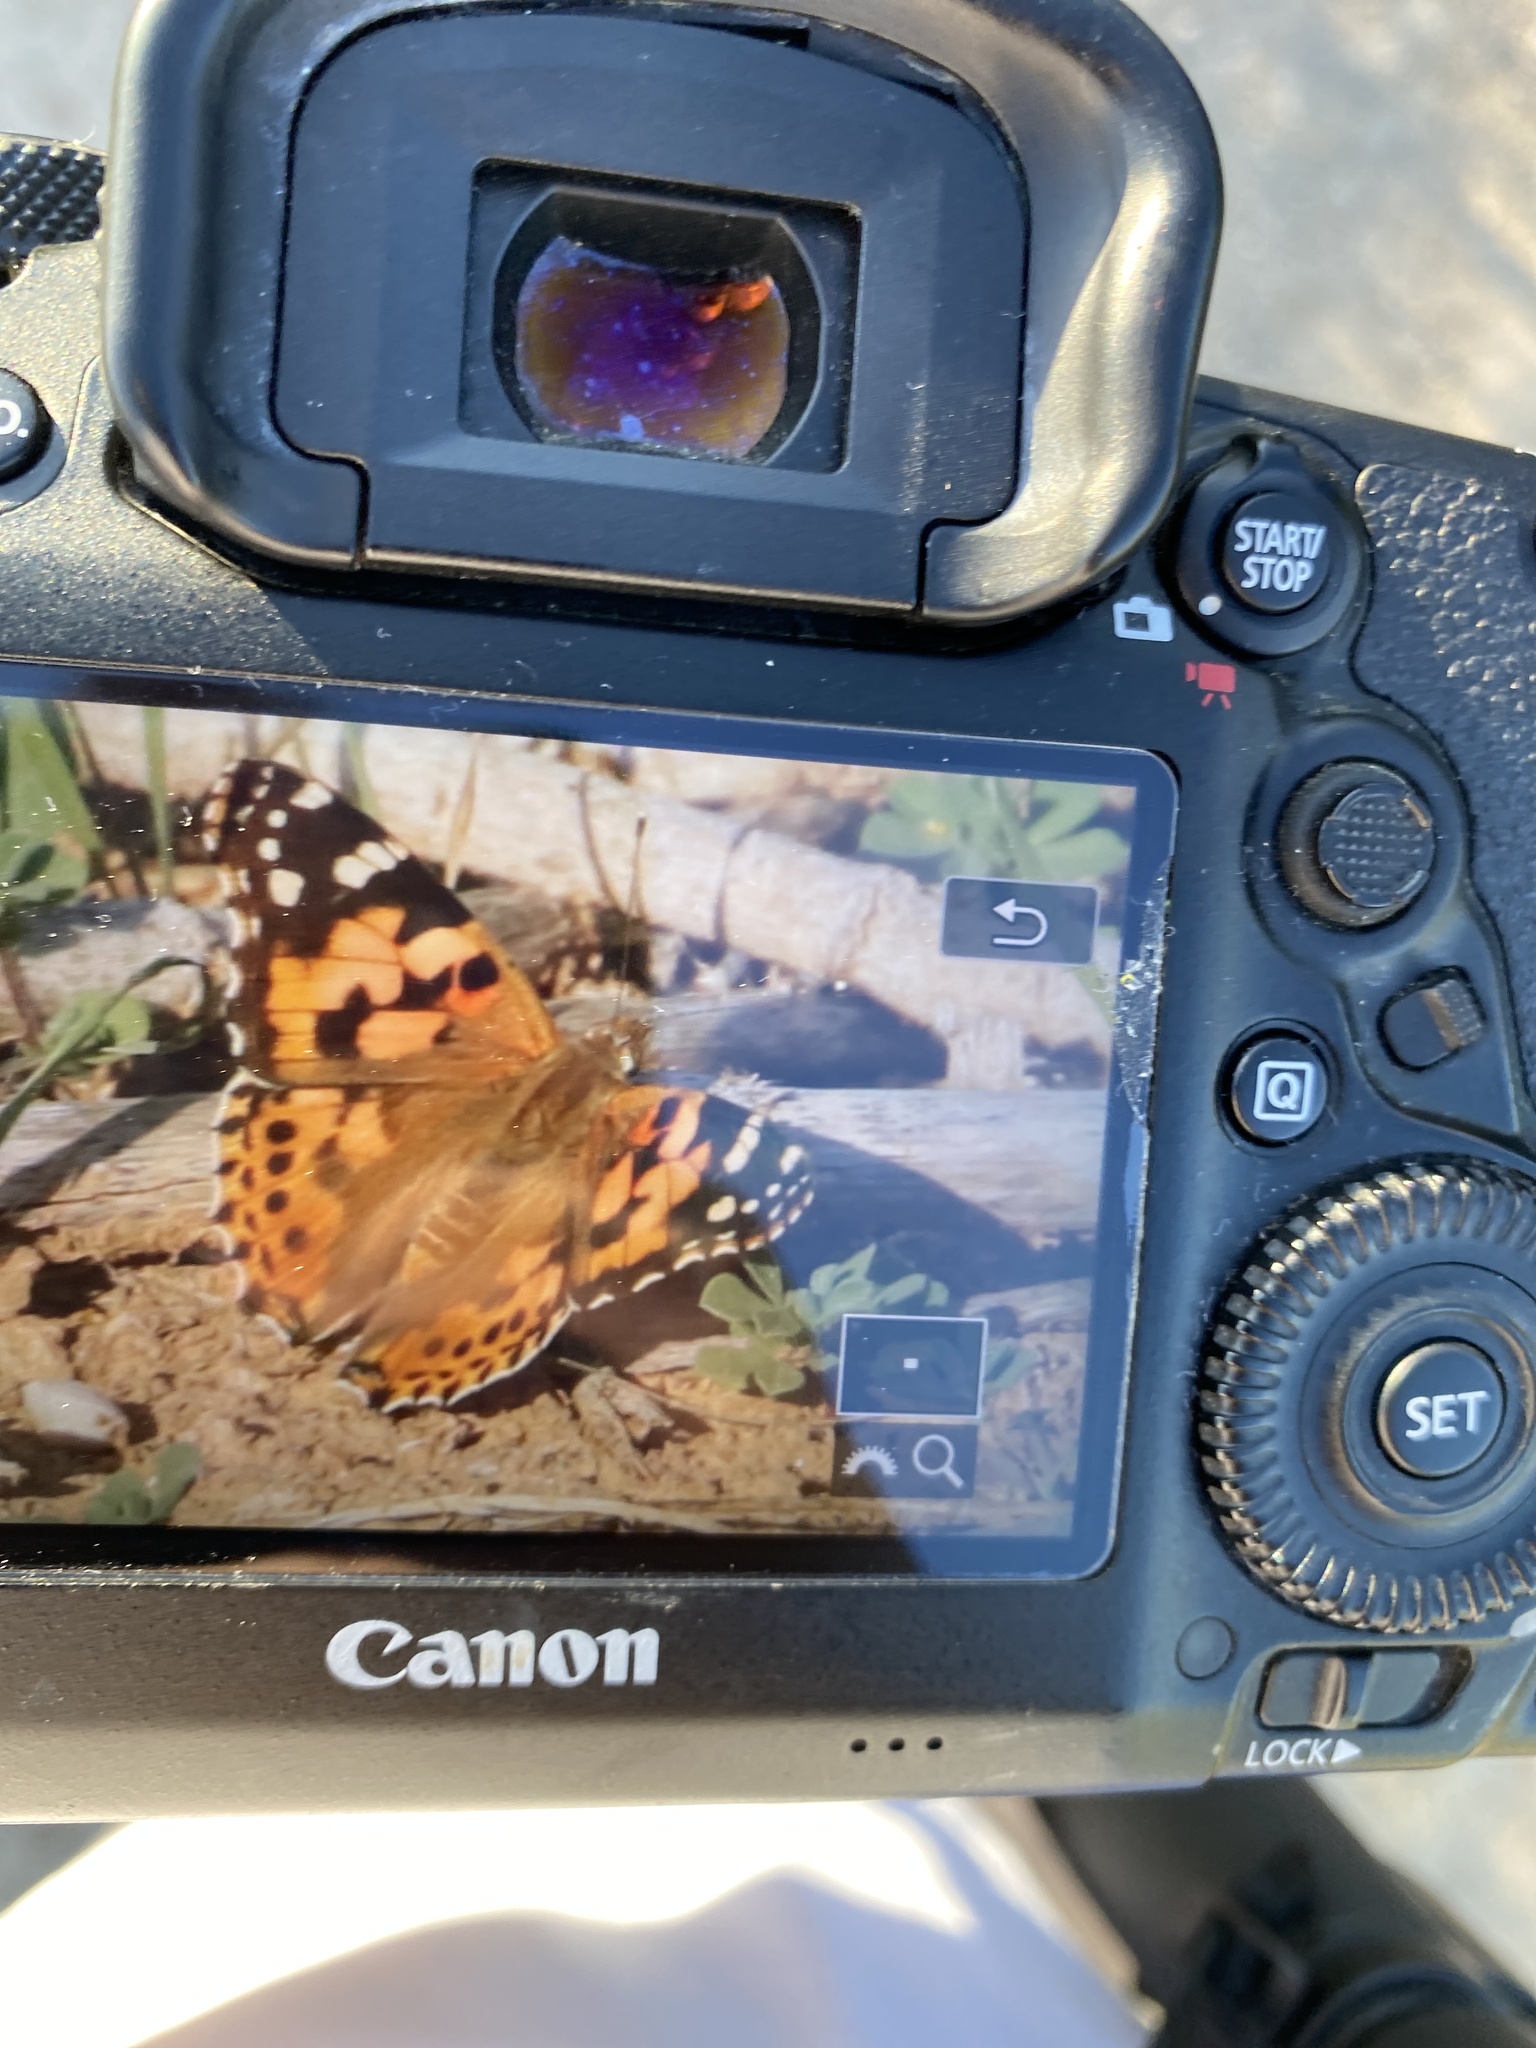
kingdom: Animalia
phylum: Arthropoda
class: Insecta
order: Lepidoptera
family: Nymphalidae
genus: Vanessa
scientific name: Vanessa cardui
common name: Painted lady
